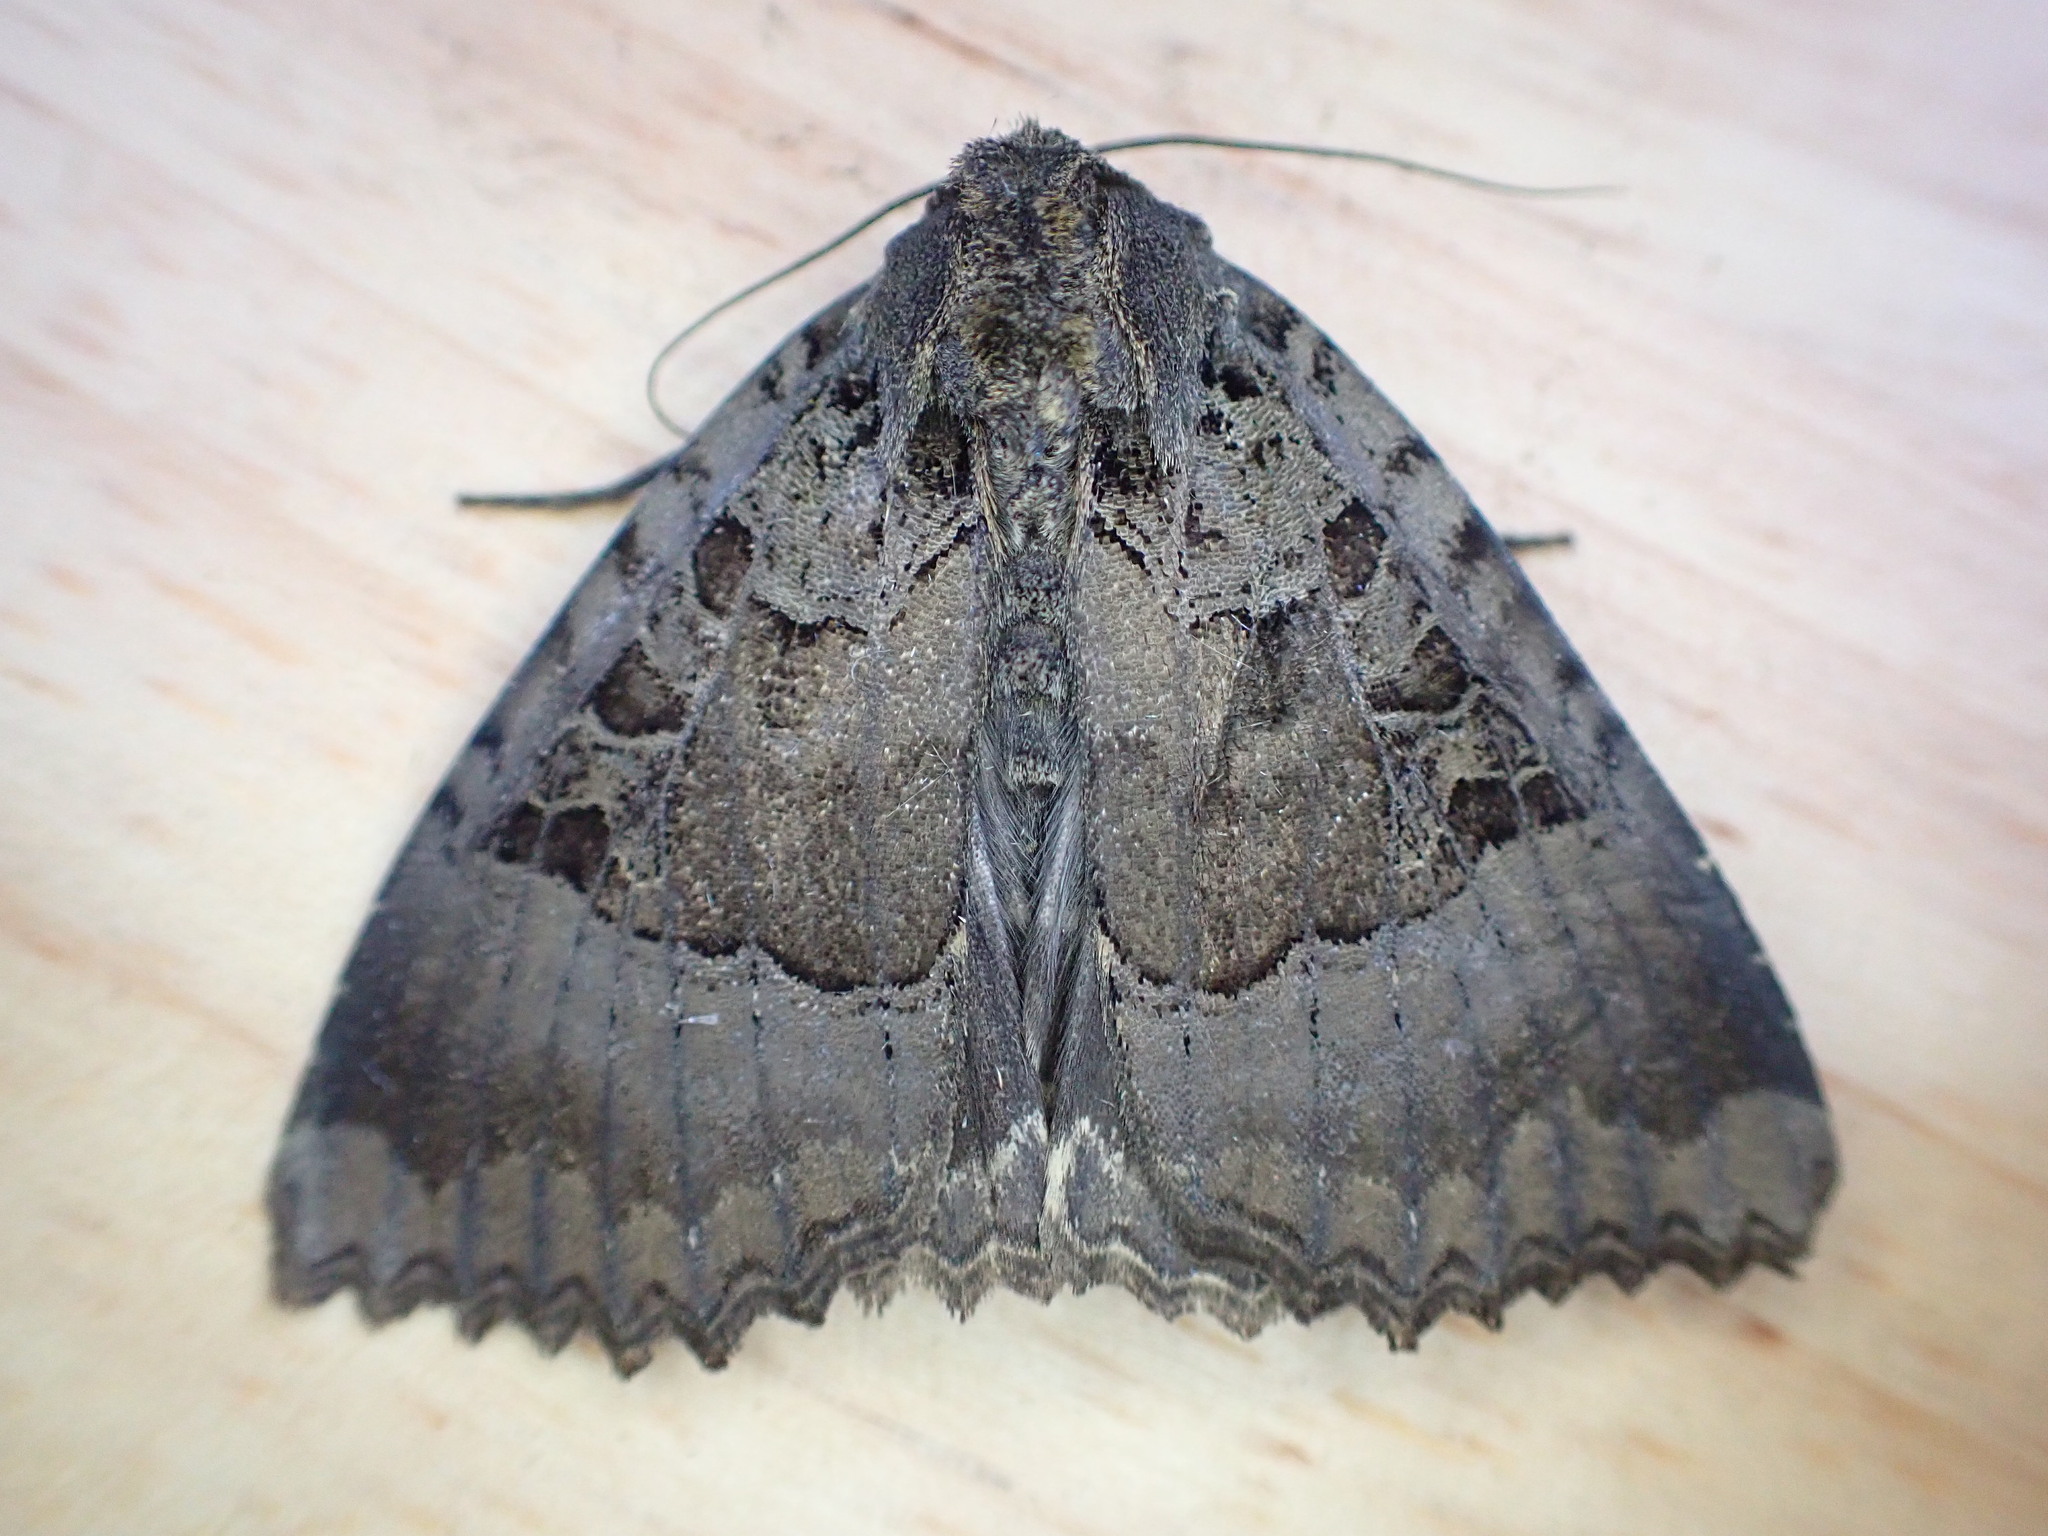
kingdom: Animalia
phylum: Arthropoda
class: Insecta
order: Lepidoptera
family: Noctuidae
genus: Mormo
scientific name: Mormo maura
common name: Old lady
